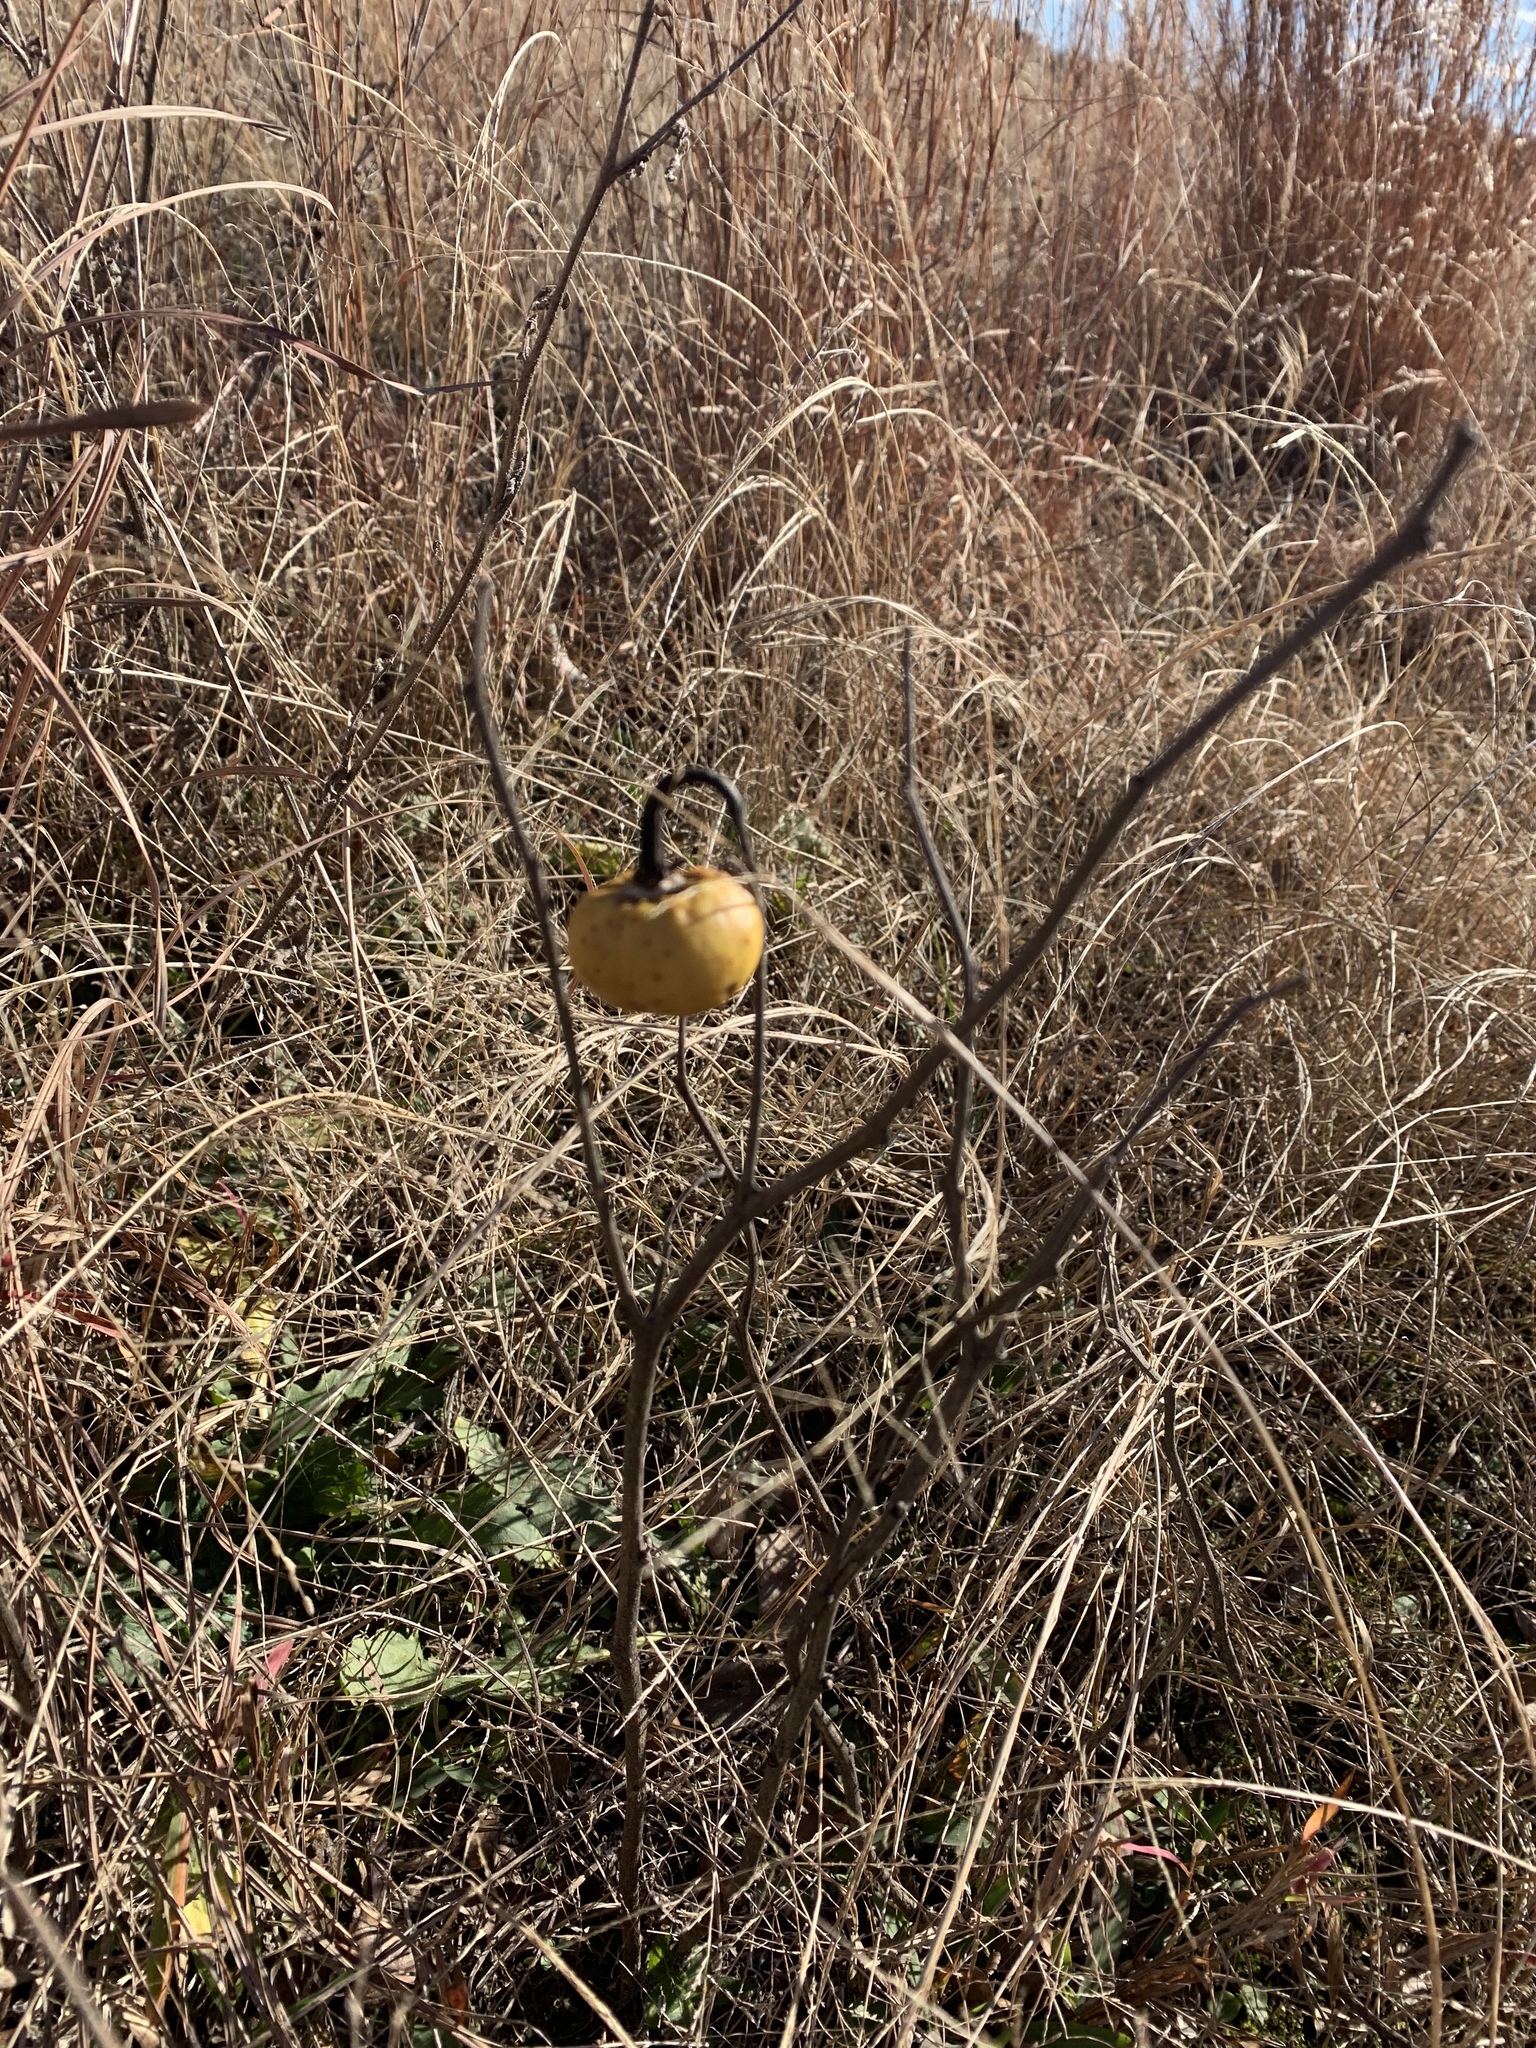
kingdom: Plantae
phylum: Tracheophyta
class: Magnoliopsida
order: Solanales
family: Solanaceae
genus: Solanum
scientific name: Solanum carolinense
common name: Horse-nettle
